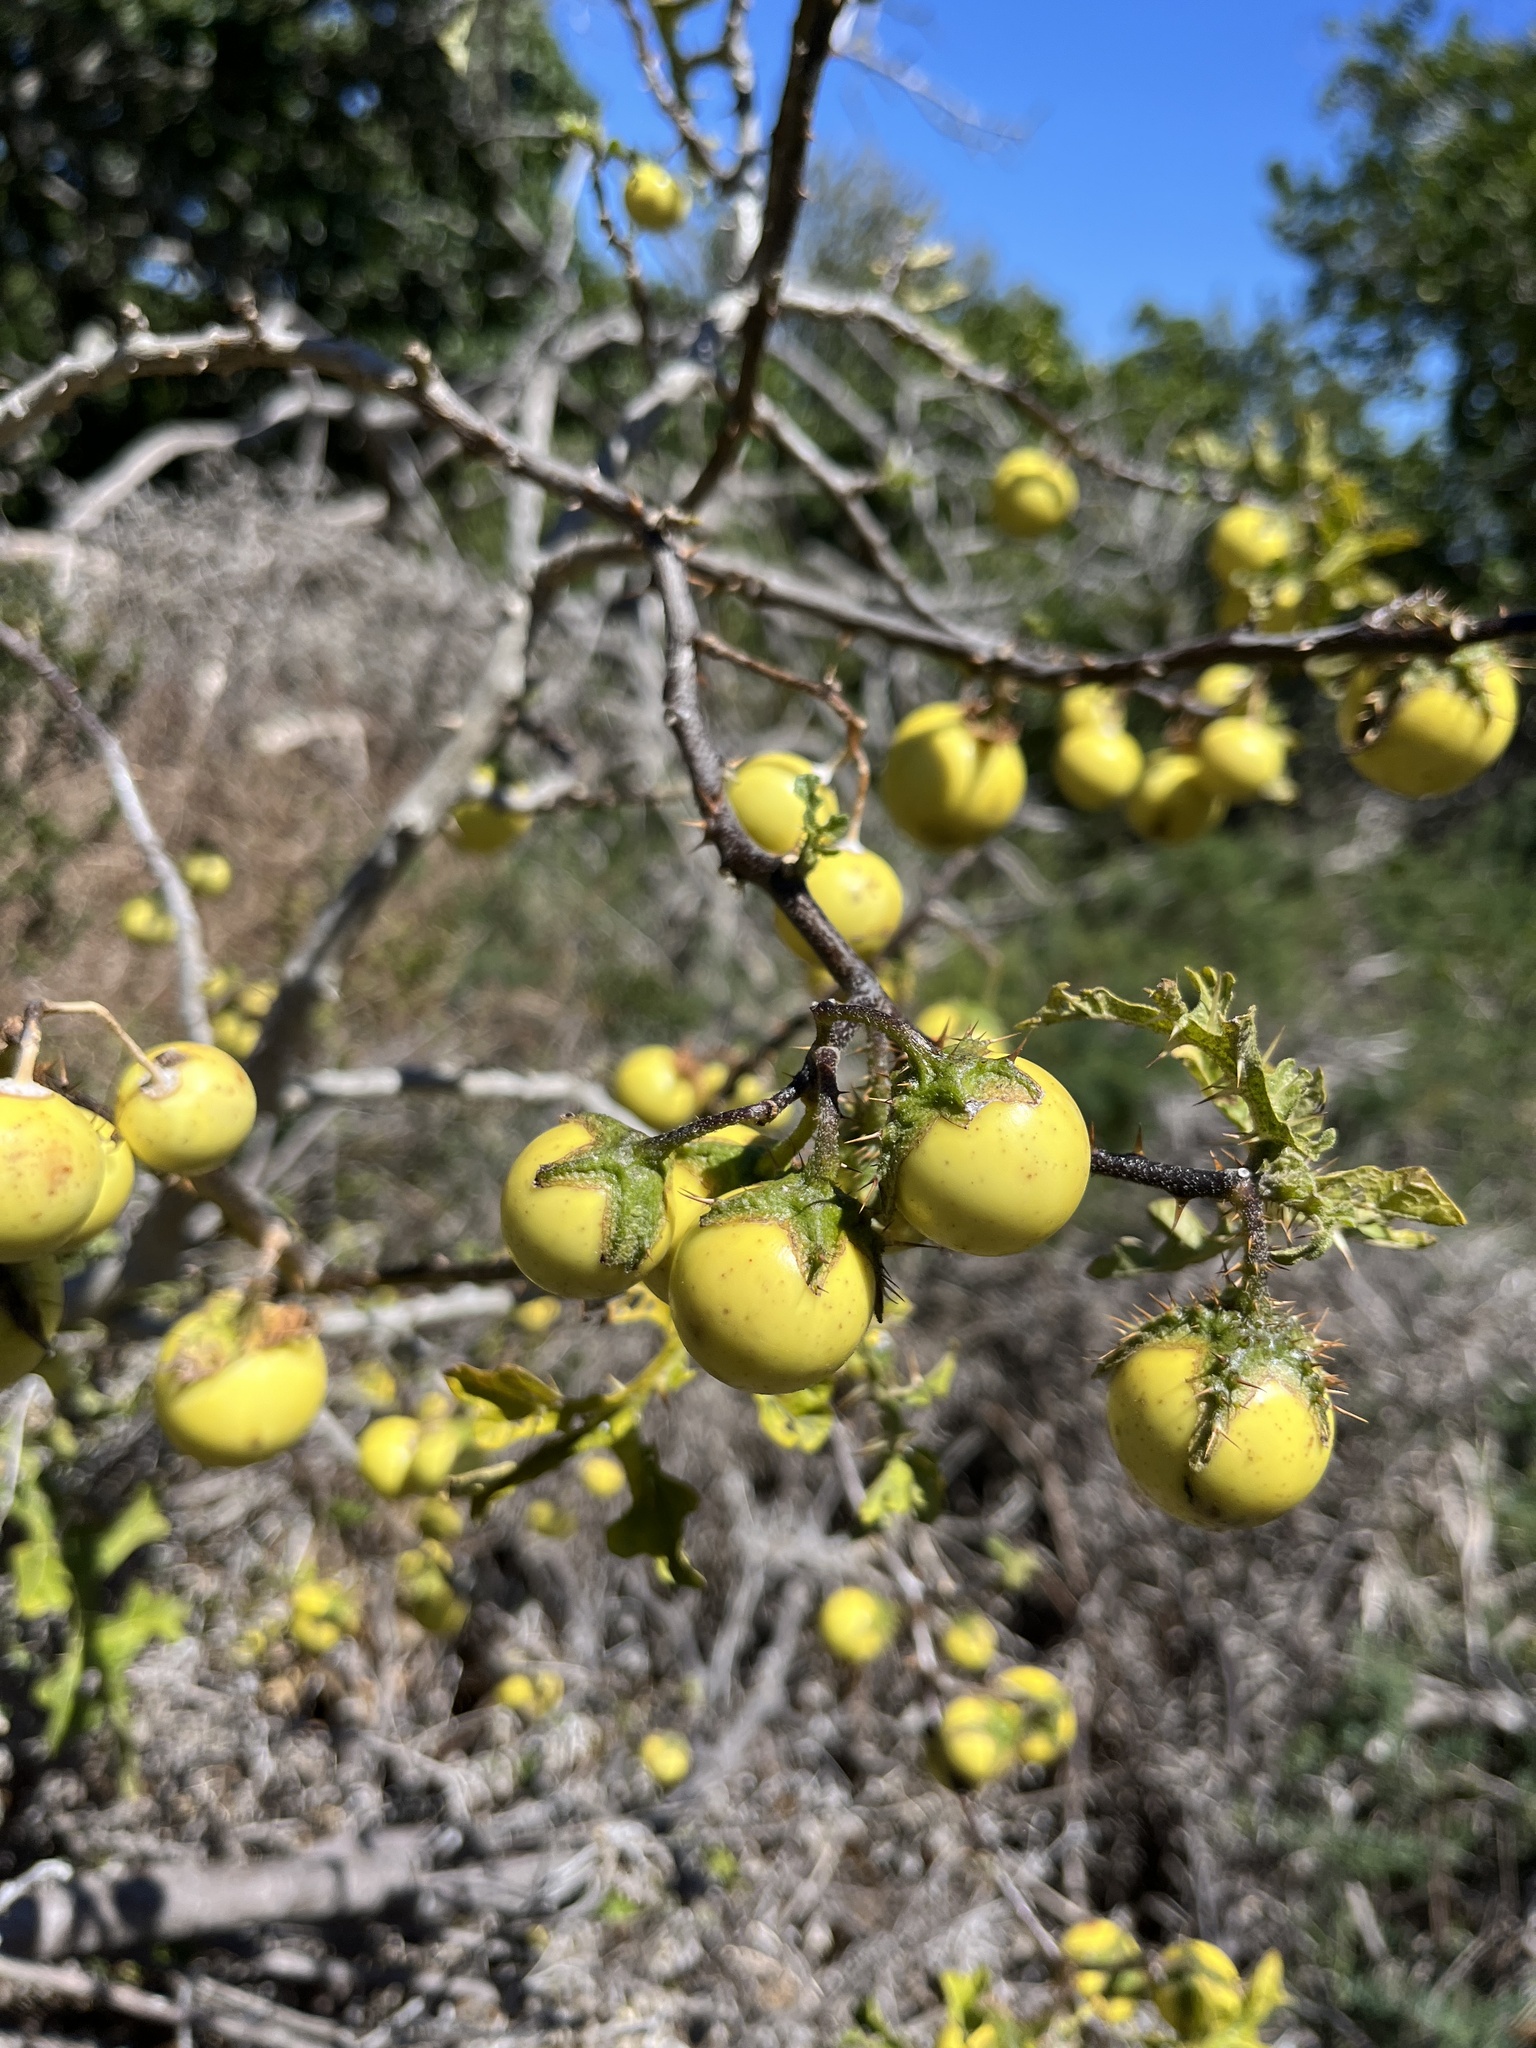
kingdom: Plantae
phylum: Tracheophyta
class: Magnoliopsida
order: Solanales
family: Solanaceae
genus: Solanum
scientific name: Solanum linnaeanum
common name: Nightshade
